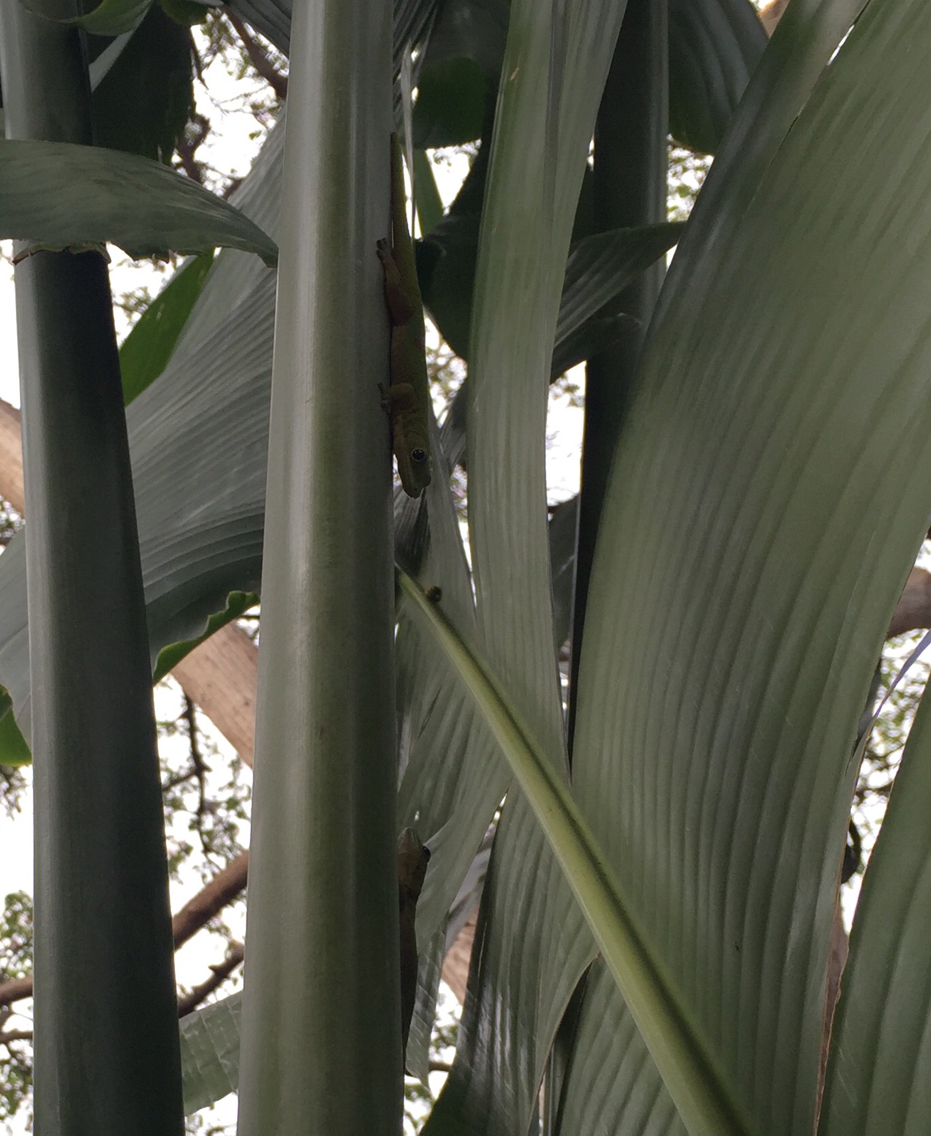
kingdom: Animalia
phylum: Chordata
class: Squamata
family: Gekkonidae
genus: Phelsuma
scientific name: Phelsuma laticauda
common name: Gold dust day gecko
